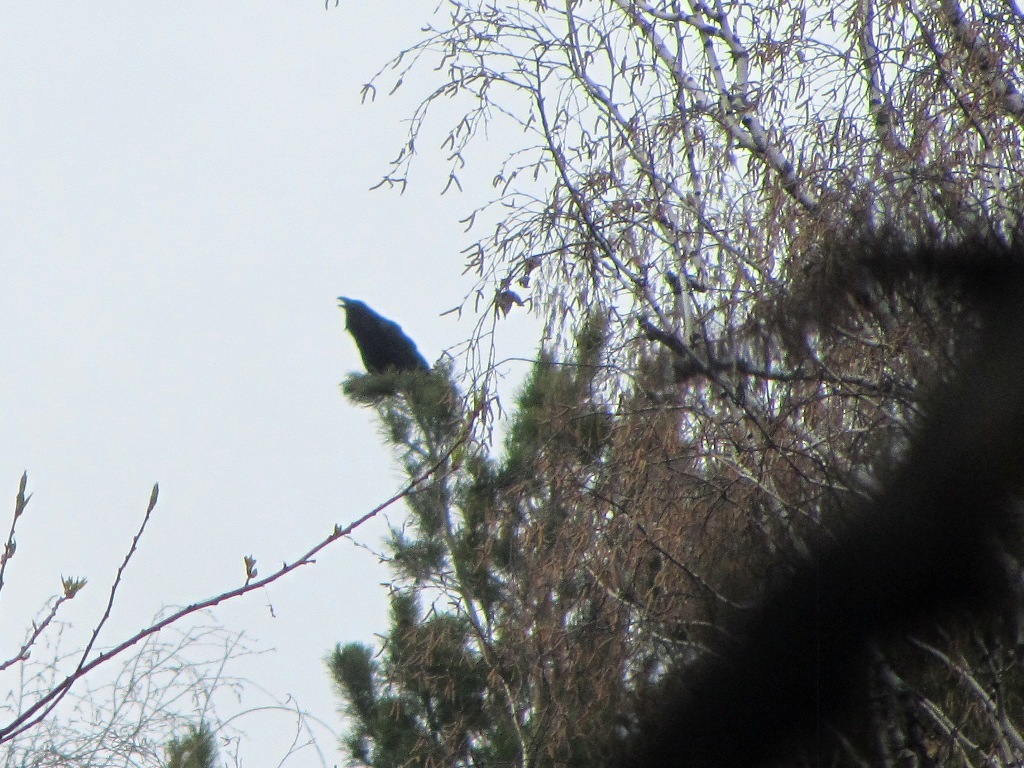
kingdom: Animalia
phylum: Chordata
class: Aves
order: Passeriformes
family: Corvidae
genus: Corvus
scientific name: Corvus corax
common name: Common raven
